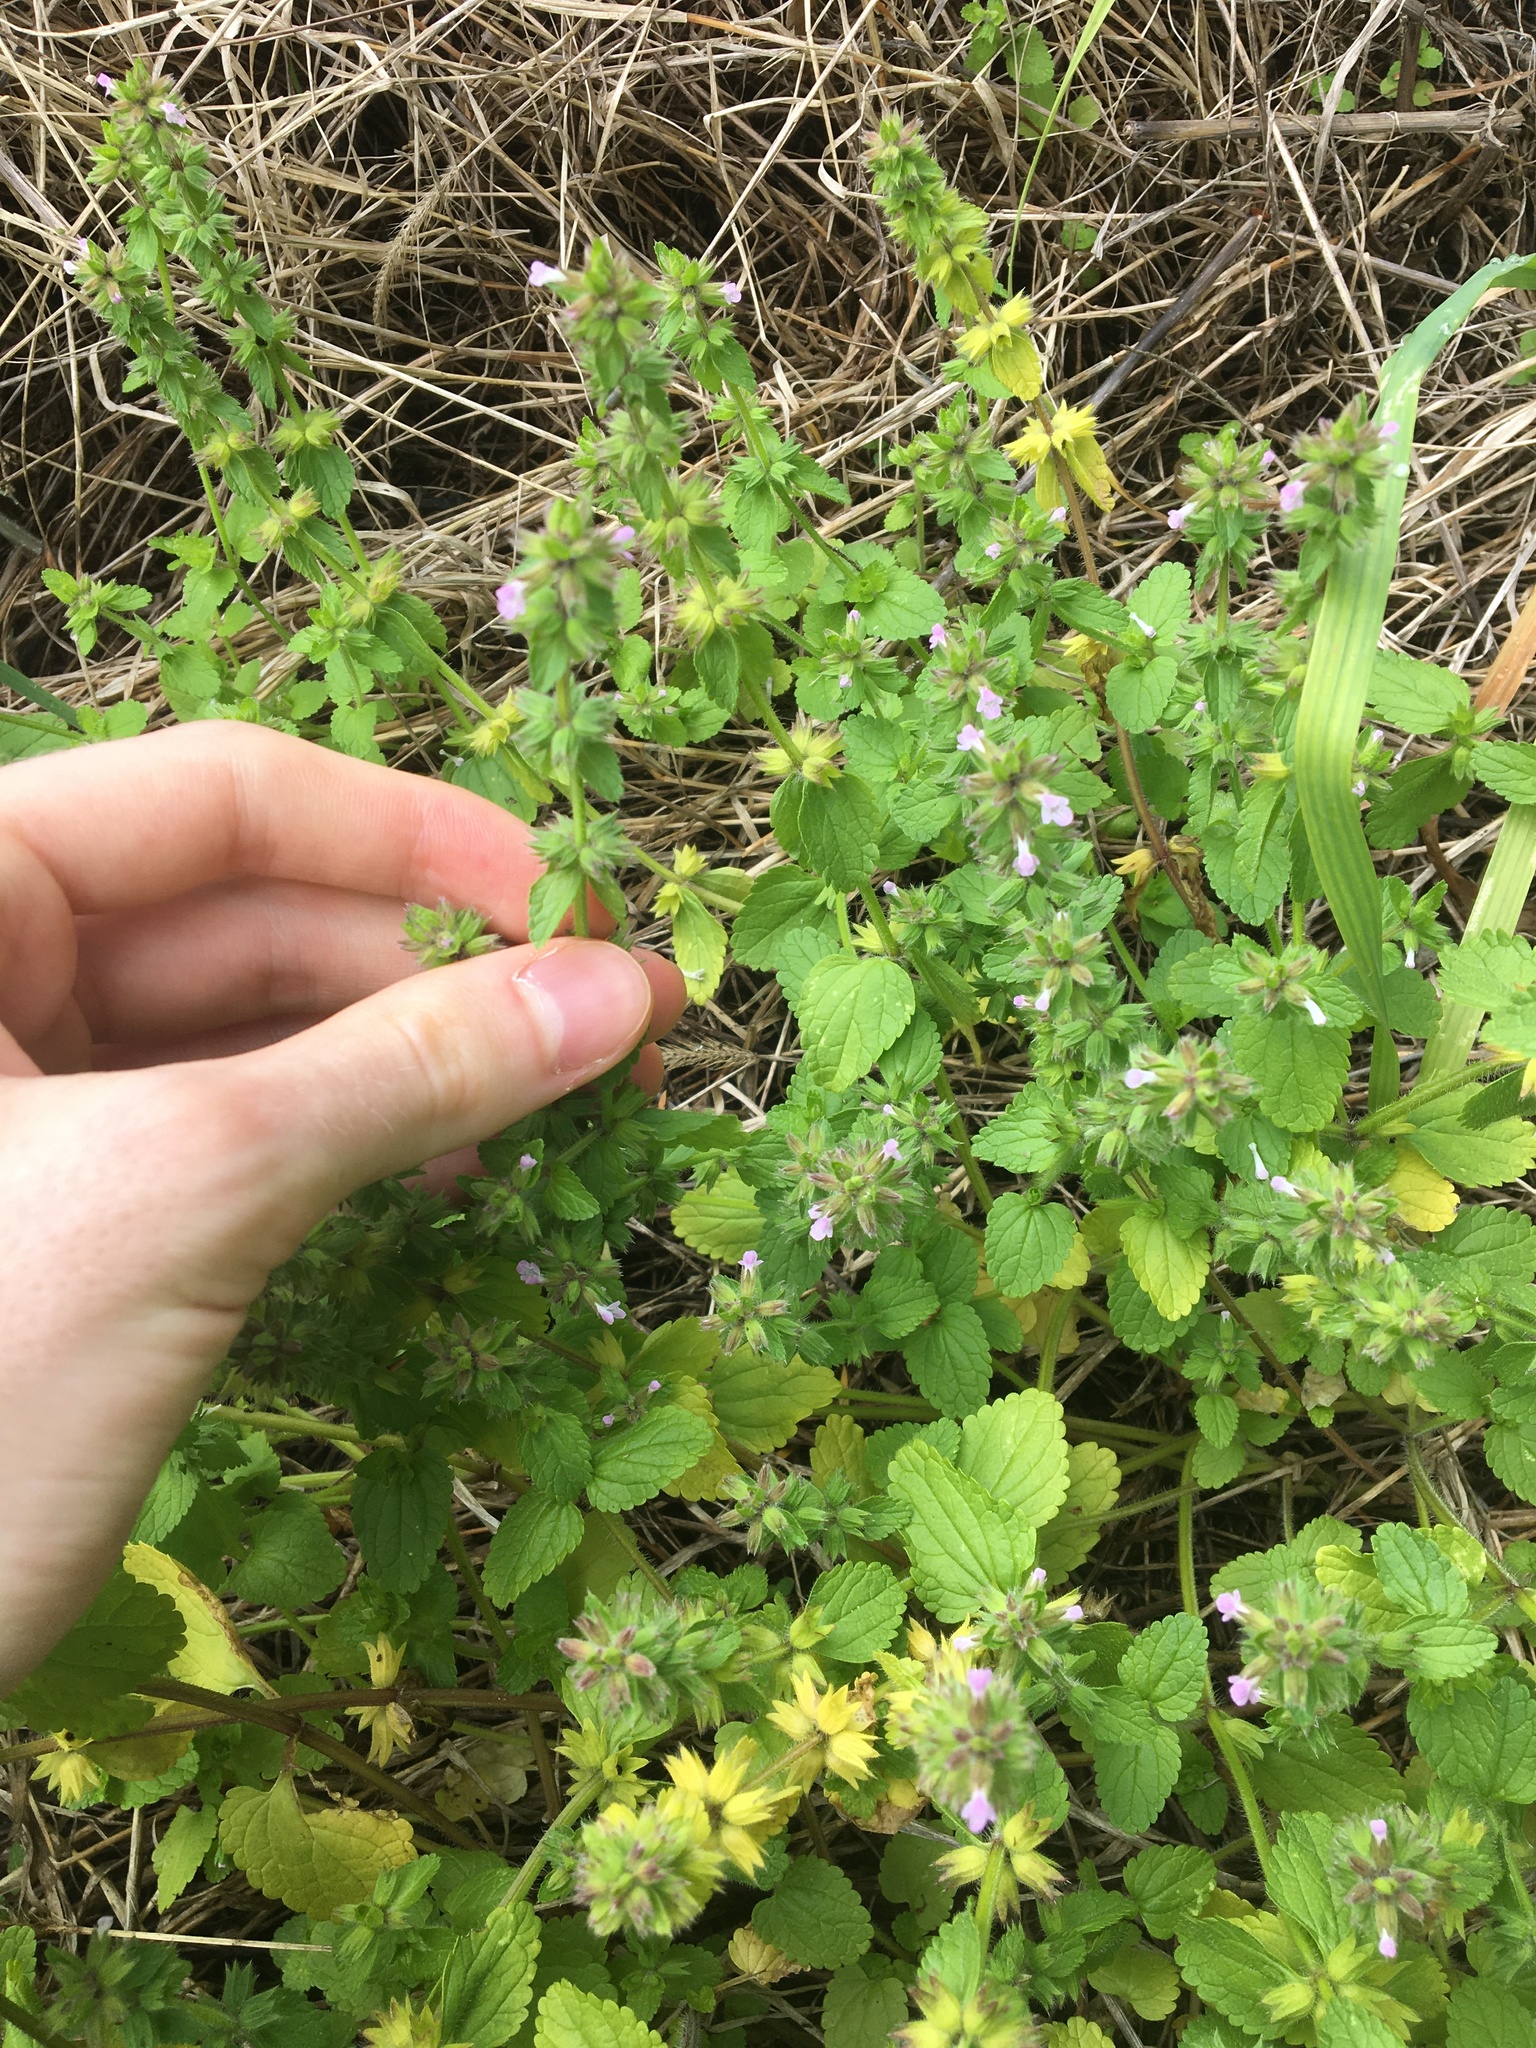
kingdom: Plantae
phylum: Tracheophyta
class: Magnoliopsida
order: Lamiales
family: Lamiaceae
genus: Stachys
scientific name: Stachys arvensis
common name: Field woundwort
